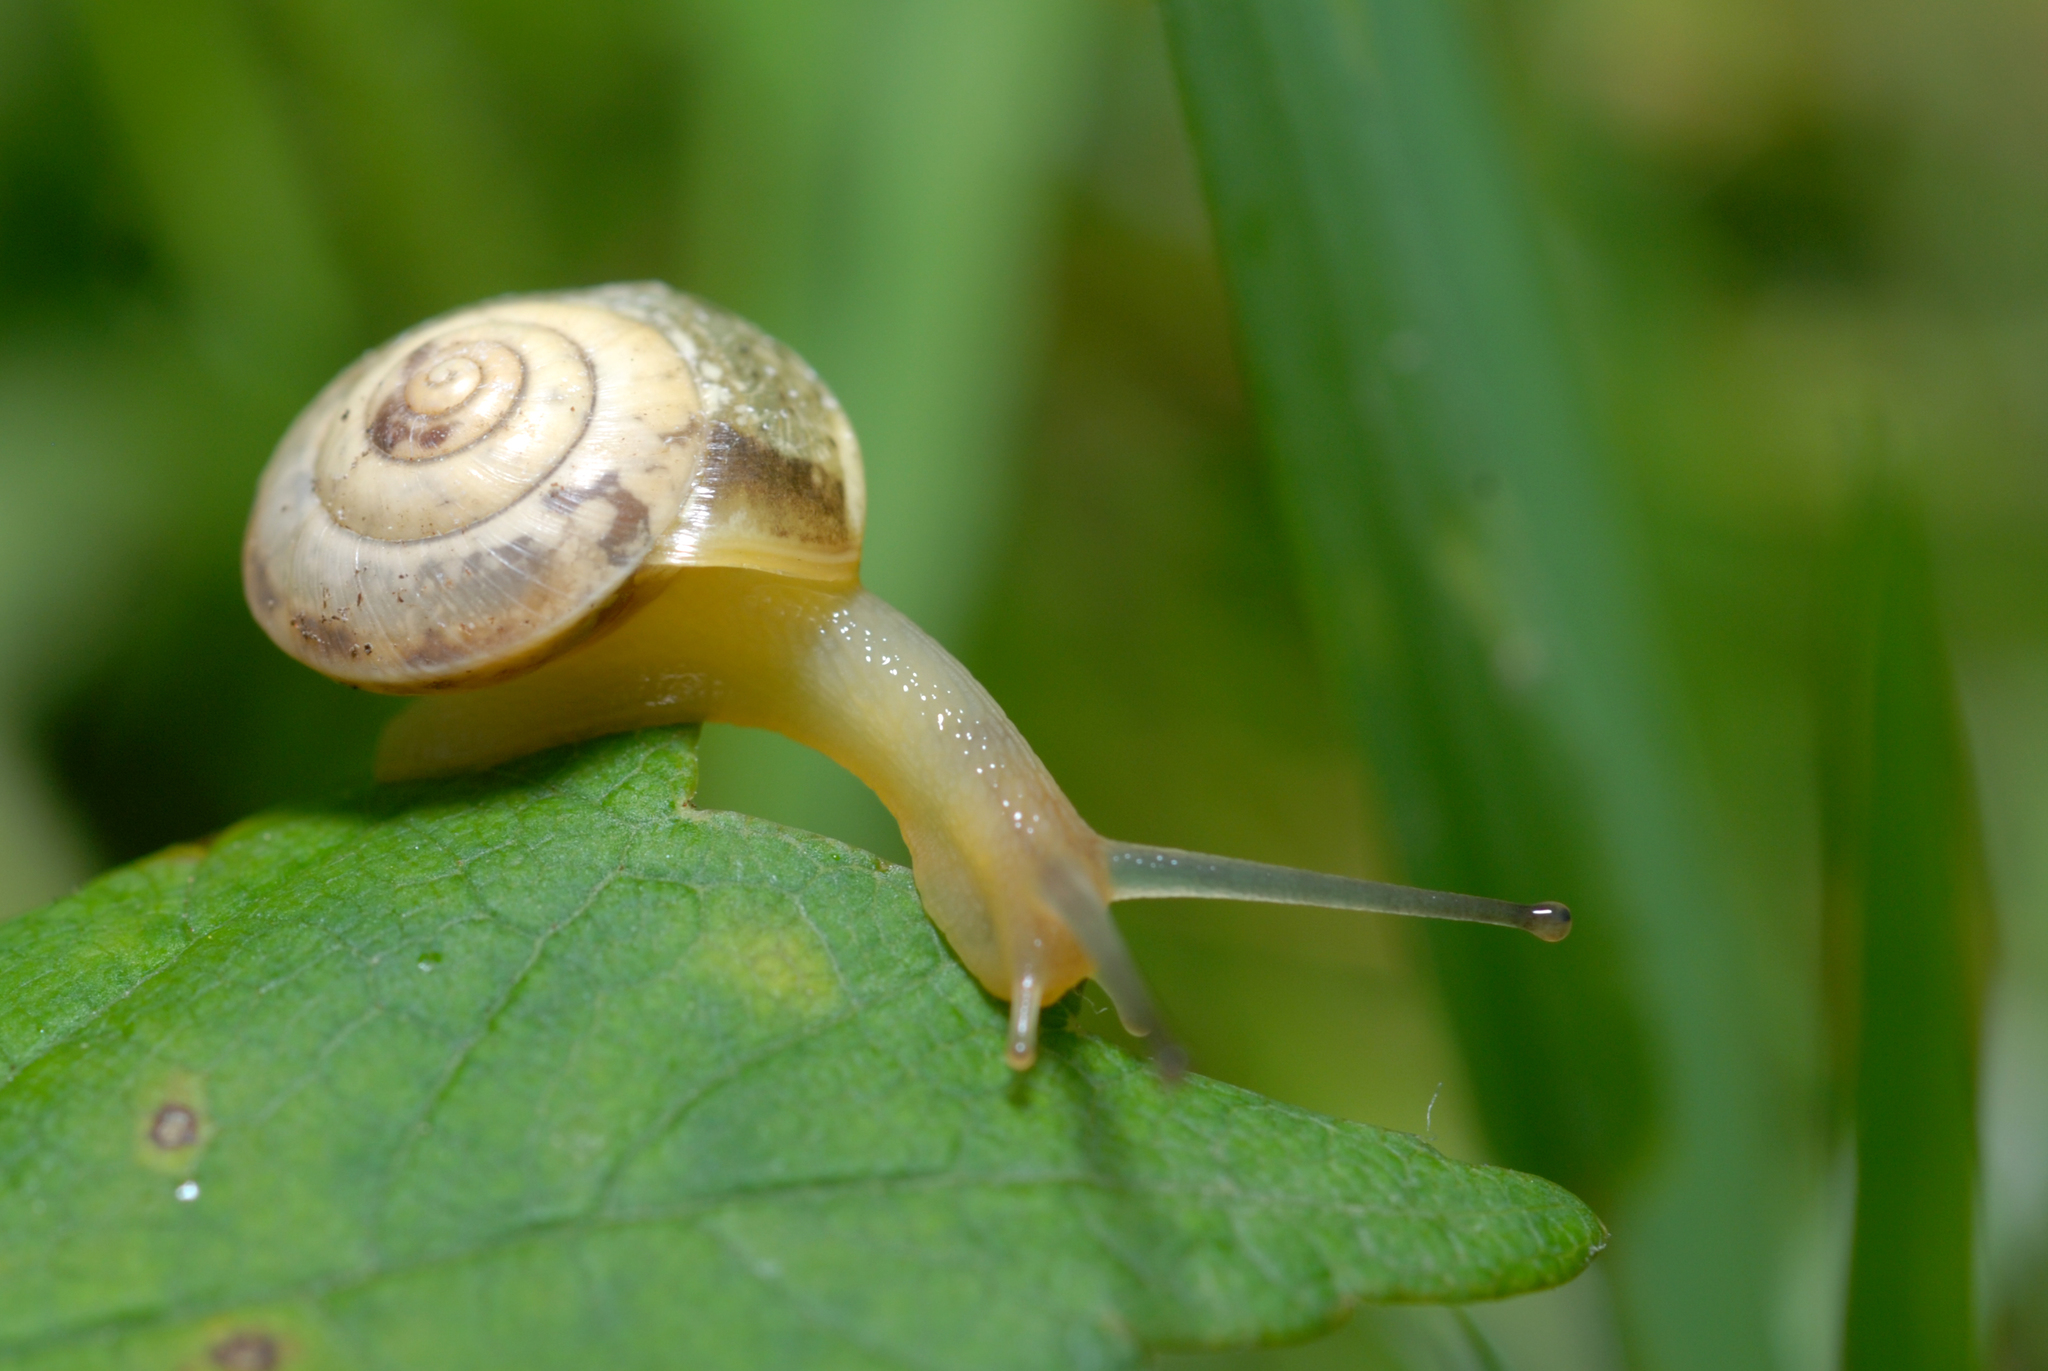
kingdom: Animalia
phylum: Mollusca
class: Gastropoda
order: Stylommatophora
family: Hygromiidae
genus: Hygromia
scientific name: Hygromia cinctella
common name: Girdled snail
